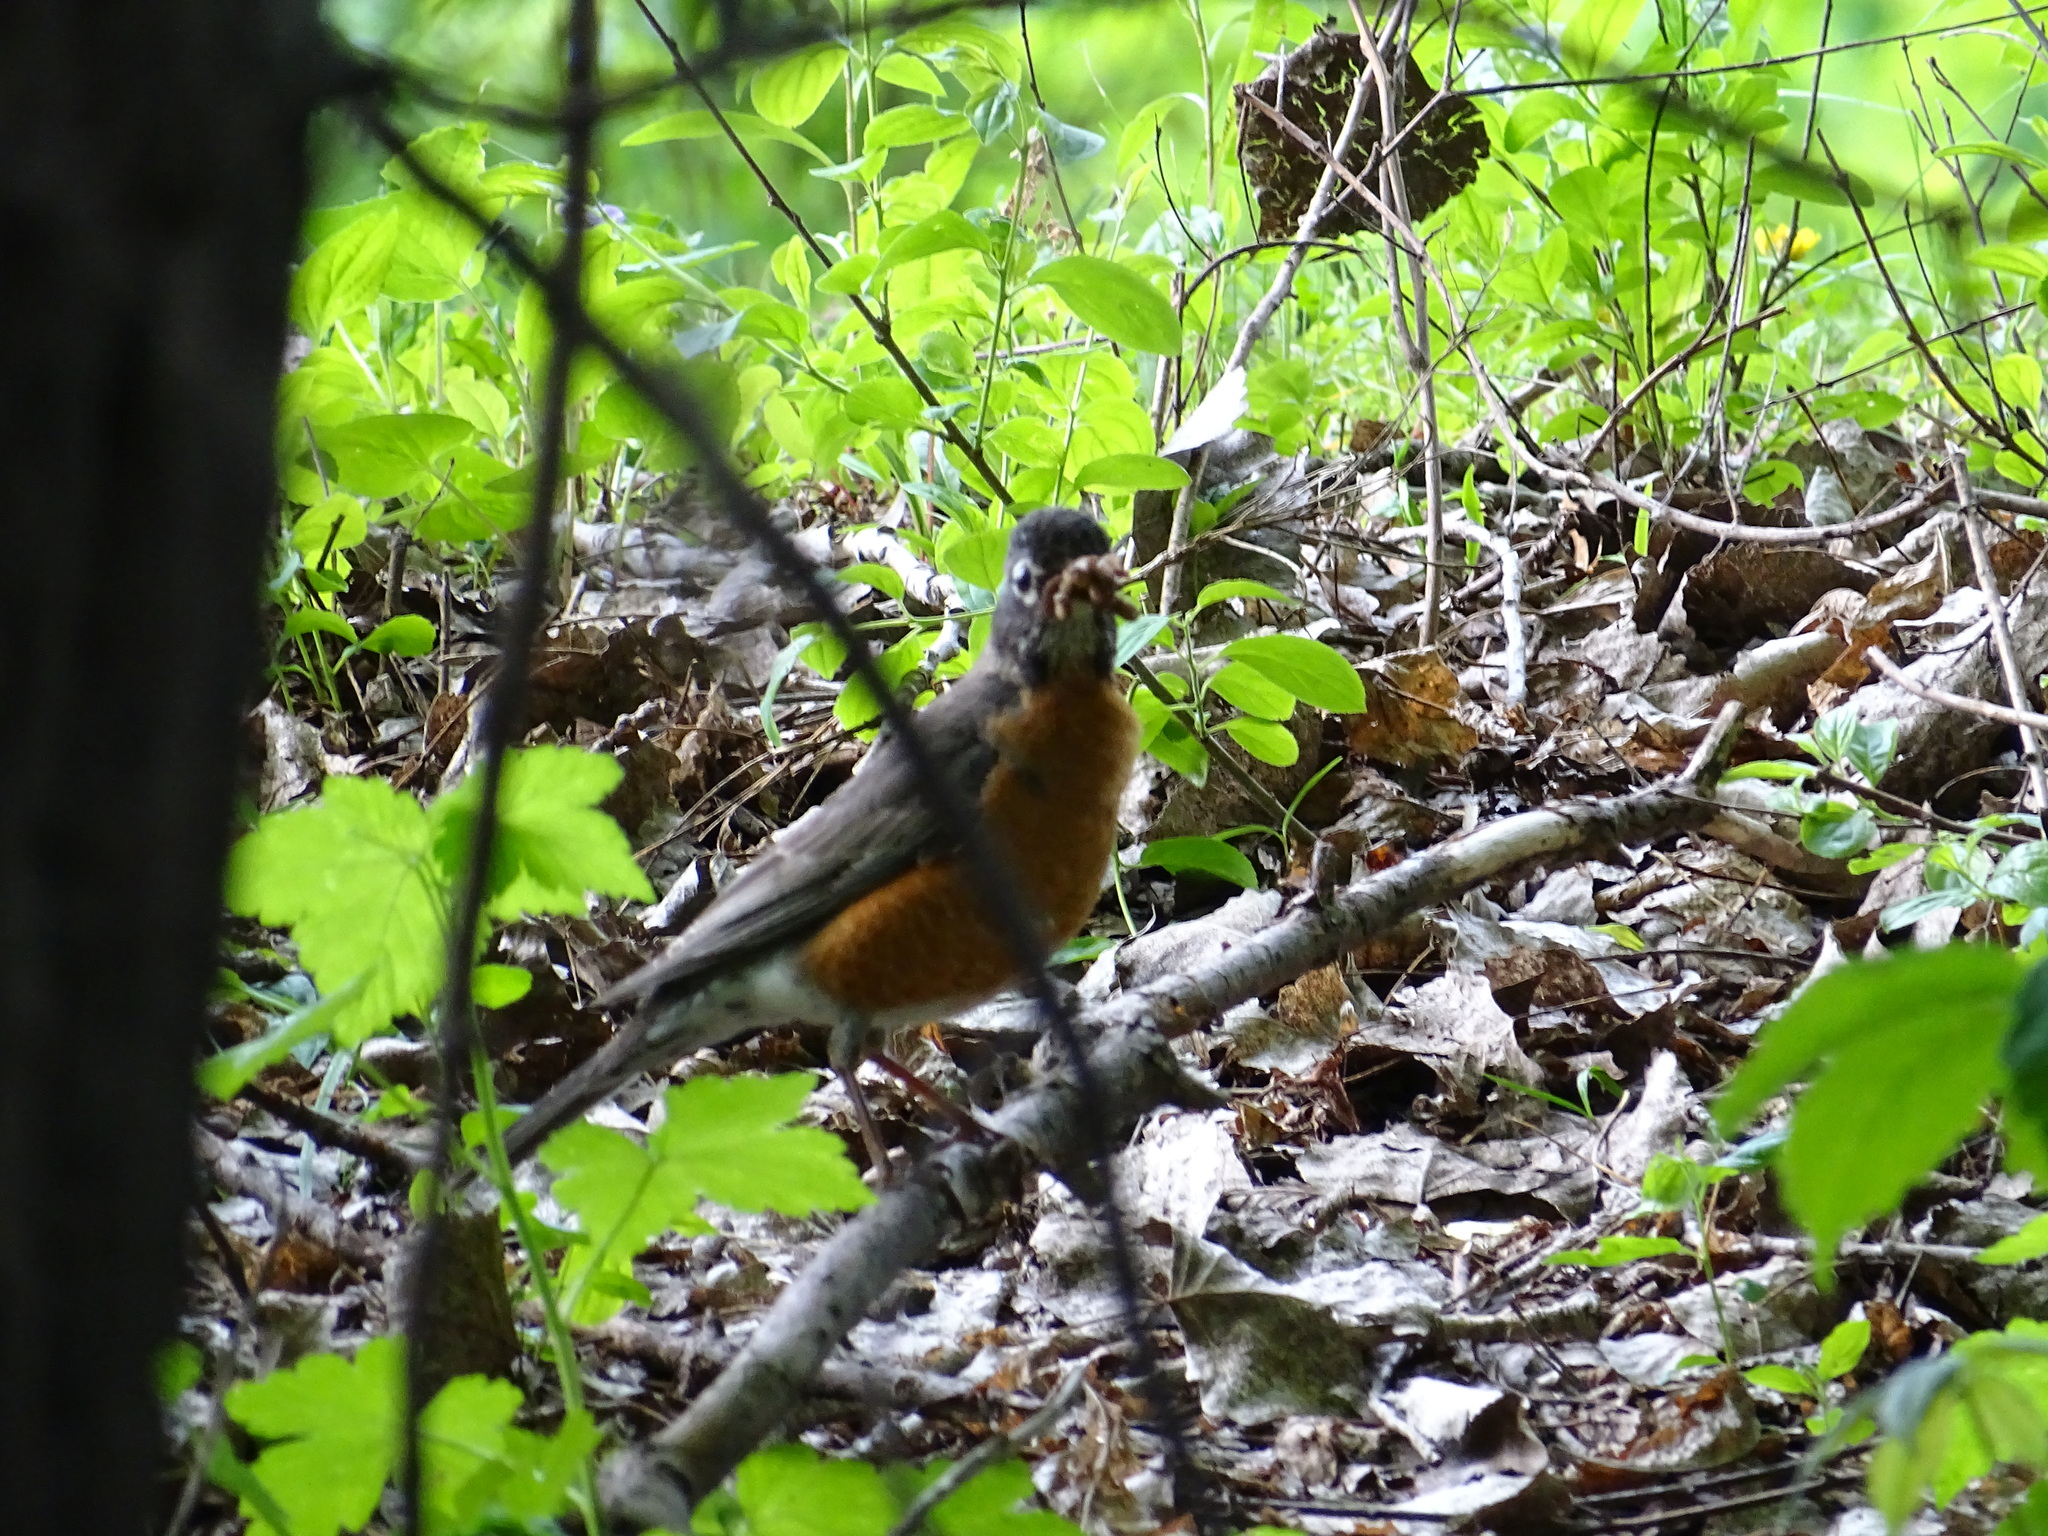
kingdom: Animalia
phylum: Chordata
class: Aves
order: Passeriformes
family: Turdidae
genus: Turdus
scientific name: Turdus migratorius
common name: American robin
